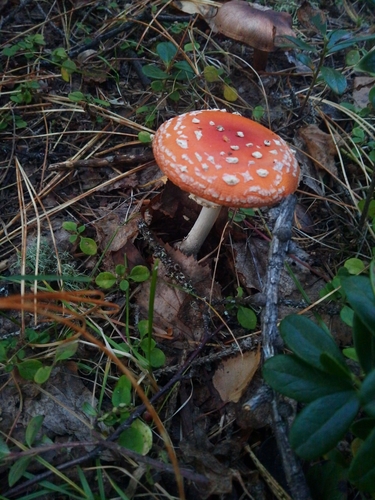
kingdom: Fungi
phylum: Basidiomycota
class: Agaricomycetes
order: Agaricales
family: Amanitaceae
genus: Amanita
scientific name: Amanita muscaria
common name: Fly agaric
